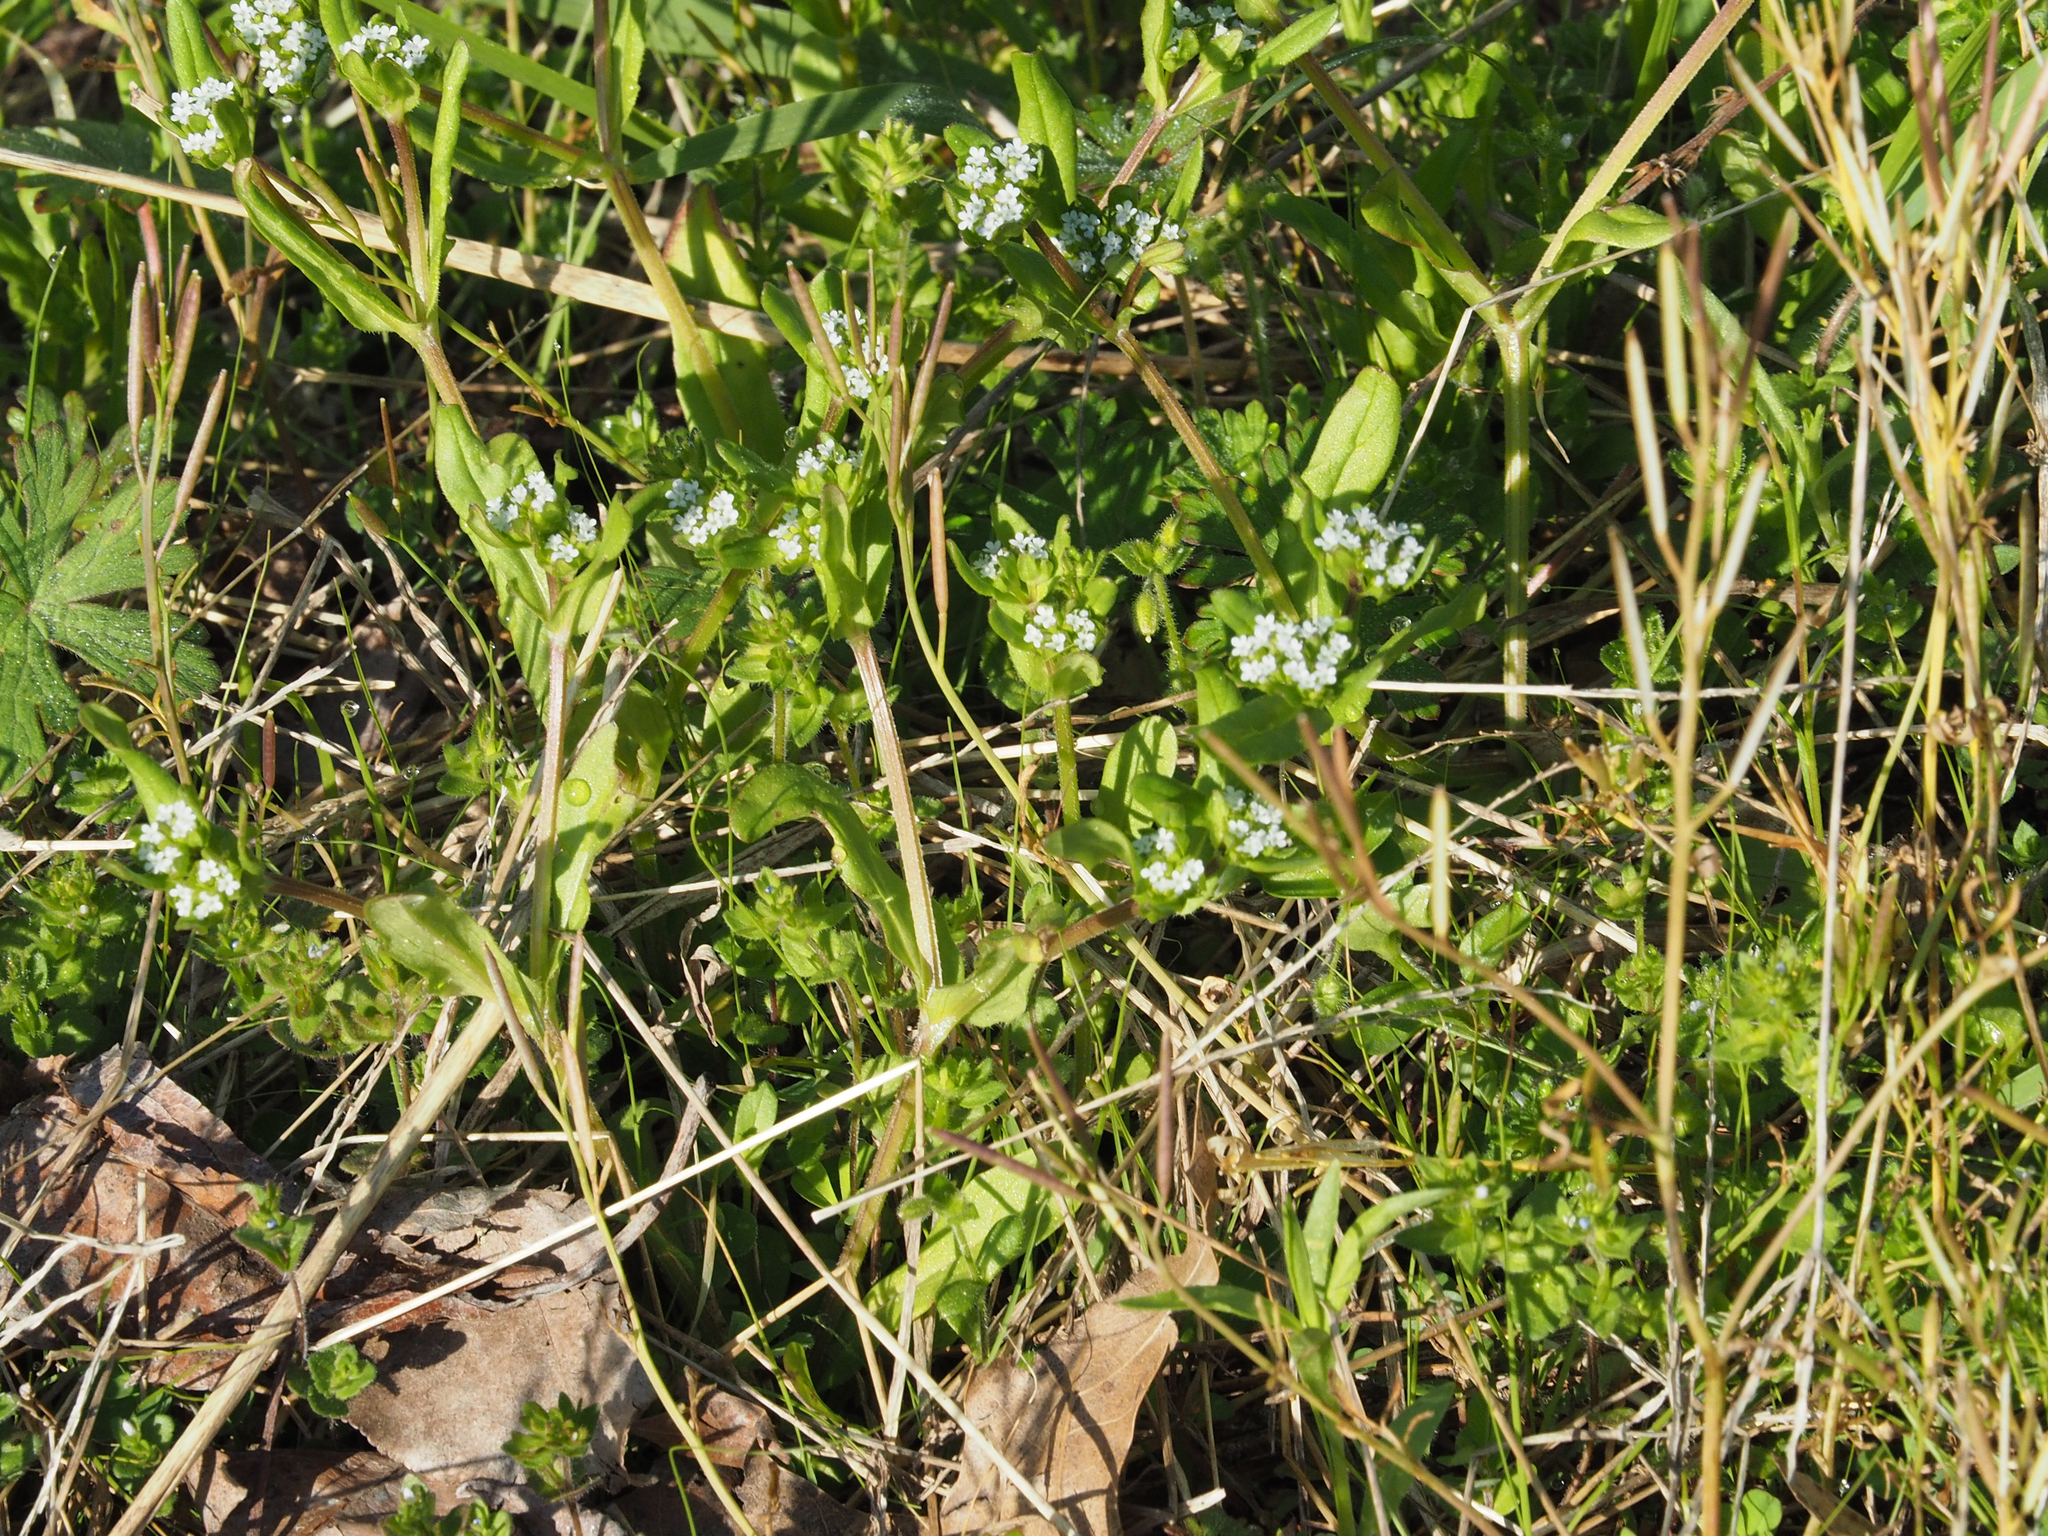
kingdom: Plantae
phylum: Tracheophyta
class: Magnoliopsida
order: Dipsacales
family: Caprifoliaceae
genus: Valerianella
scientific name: Valerianella radiata
